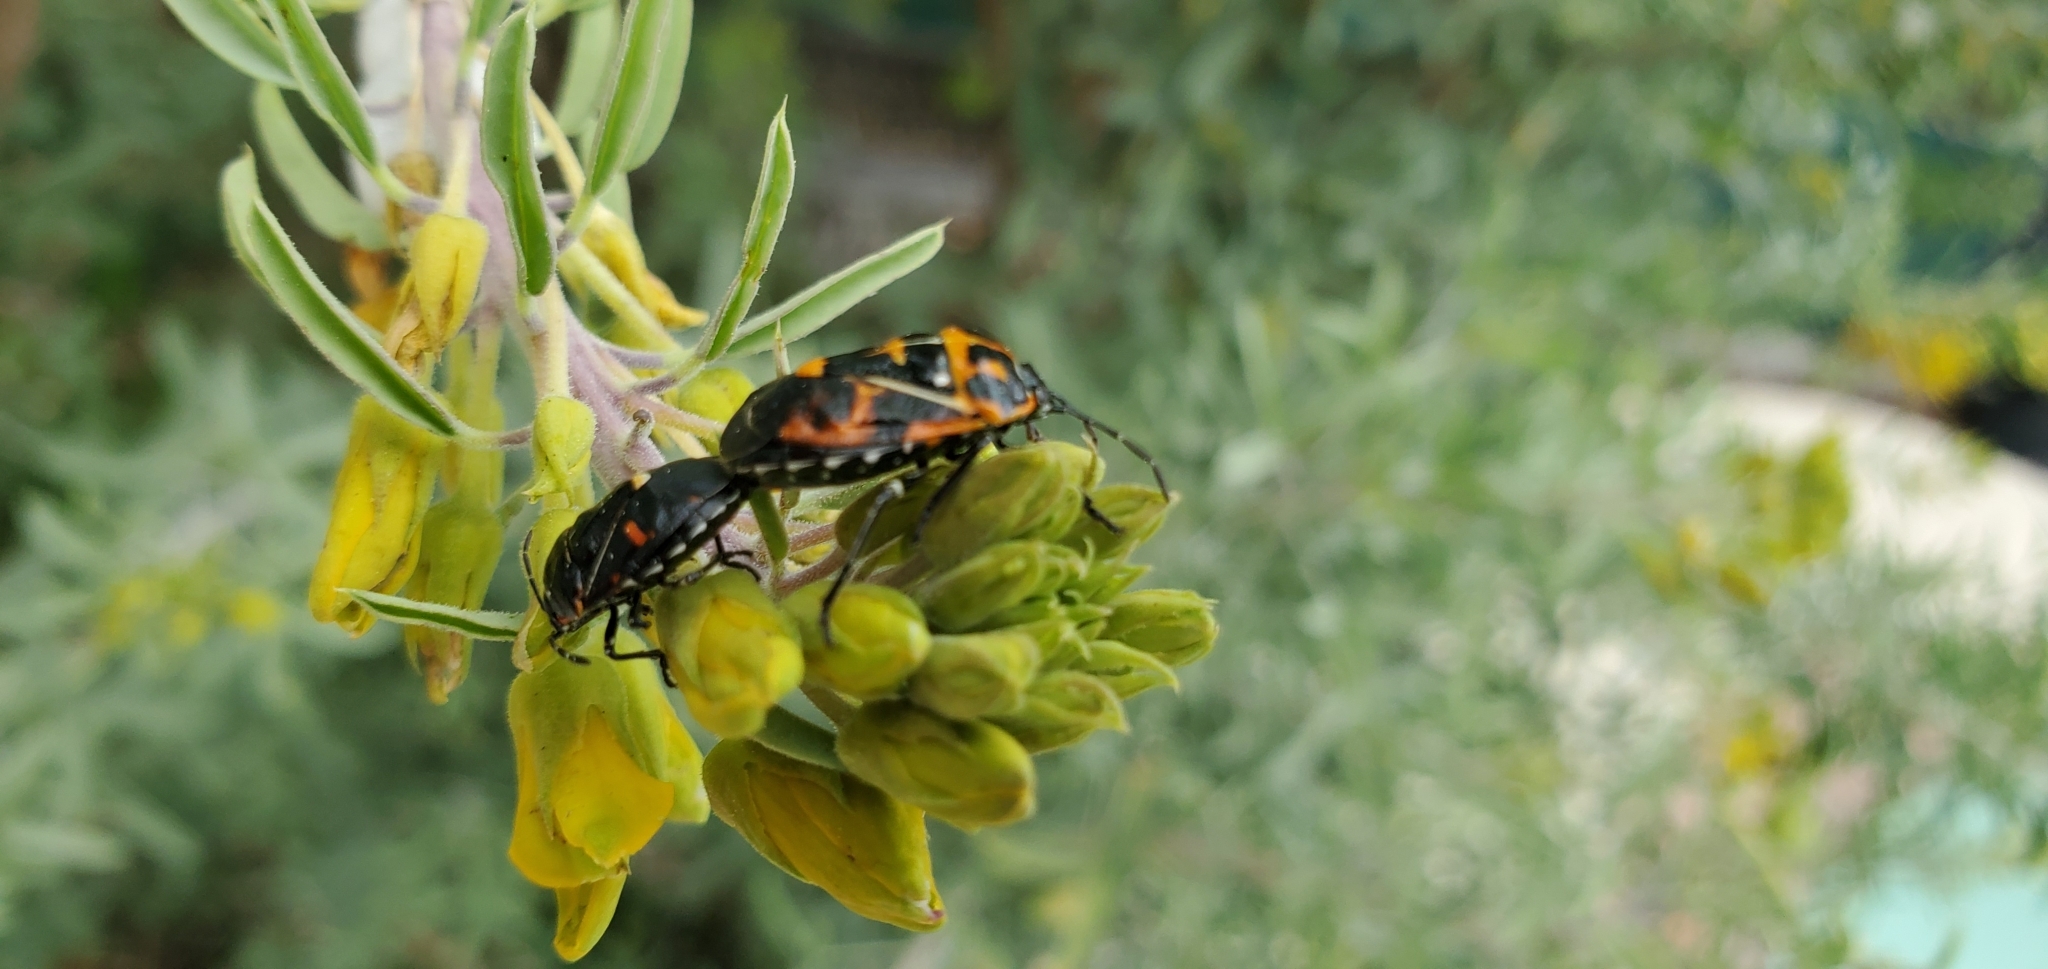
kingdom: Animalia
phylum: Arthropoda
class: Insecta
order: Hemiptera
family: Pentatomidae
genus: Murgantia
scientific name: Murgantia histrionica
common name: Harlequin bug
